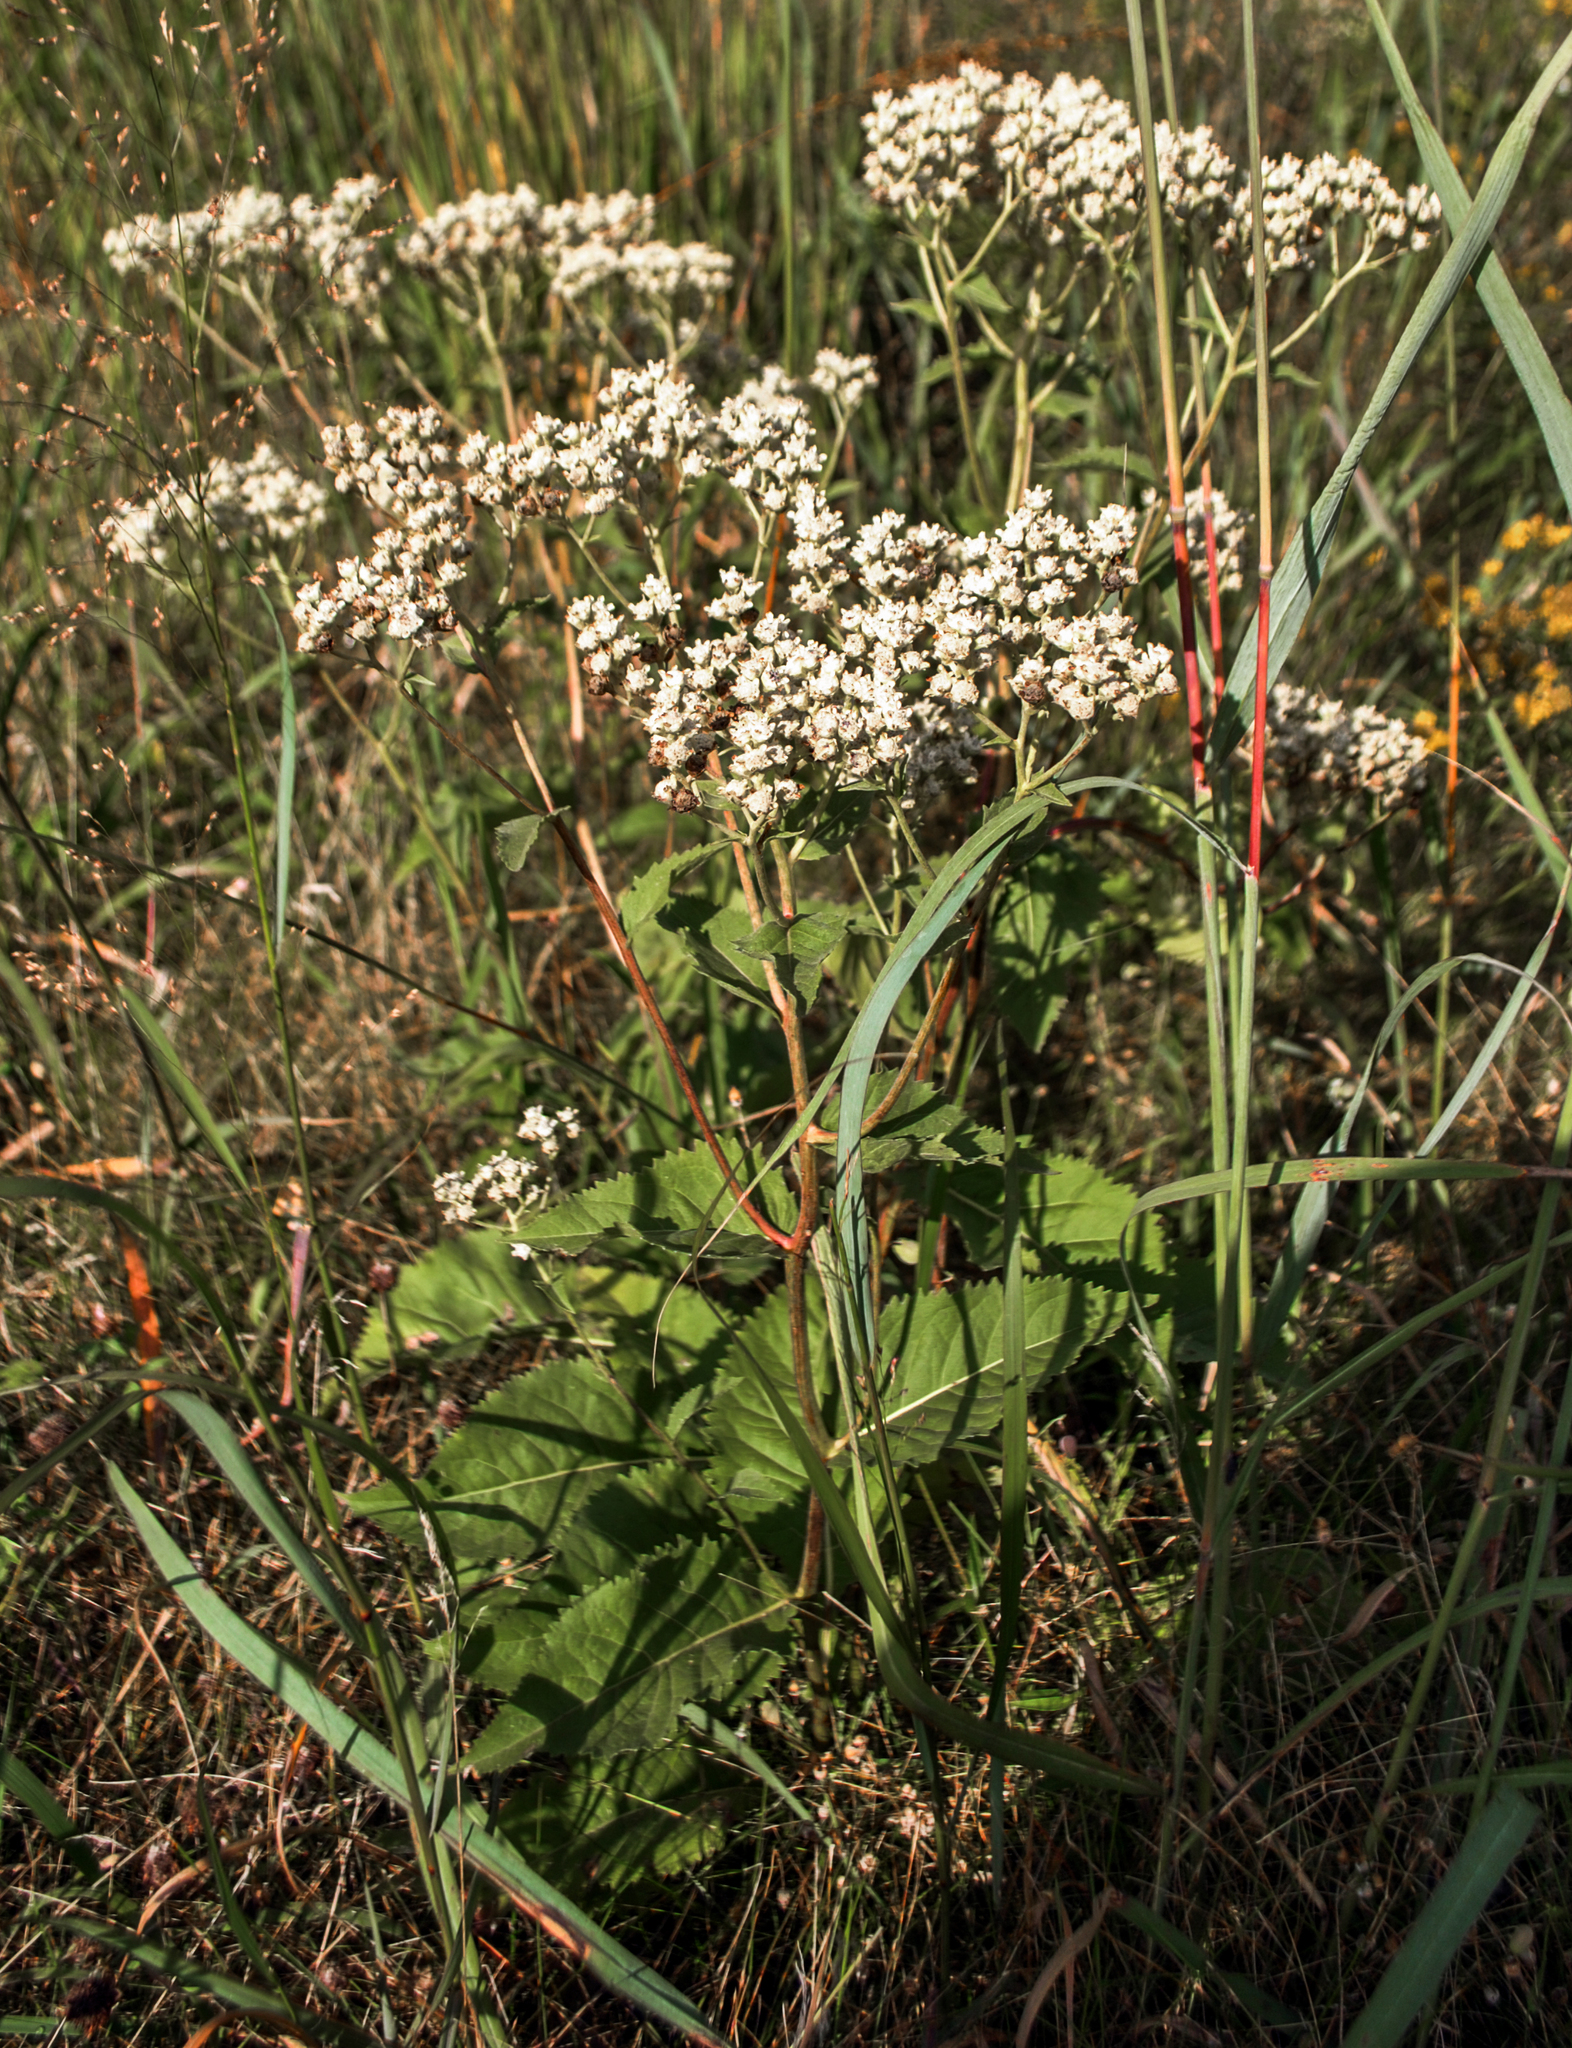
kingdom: Plantae
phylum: Tracheophyta
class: Magnoliopsida
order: Asterales
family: Asteraceae
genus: Parthenium
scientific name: Parthenium integrifolium
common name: American feverfew
